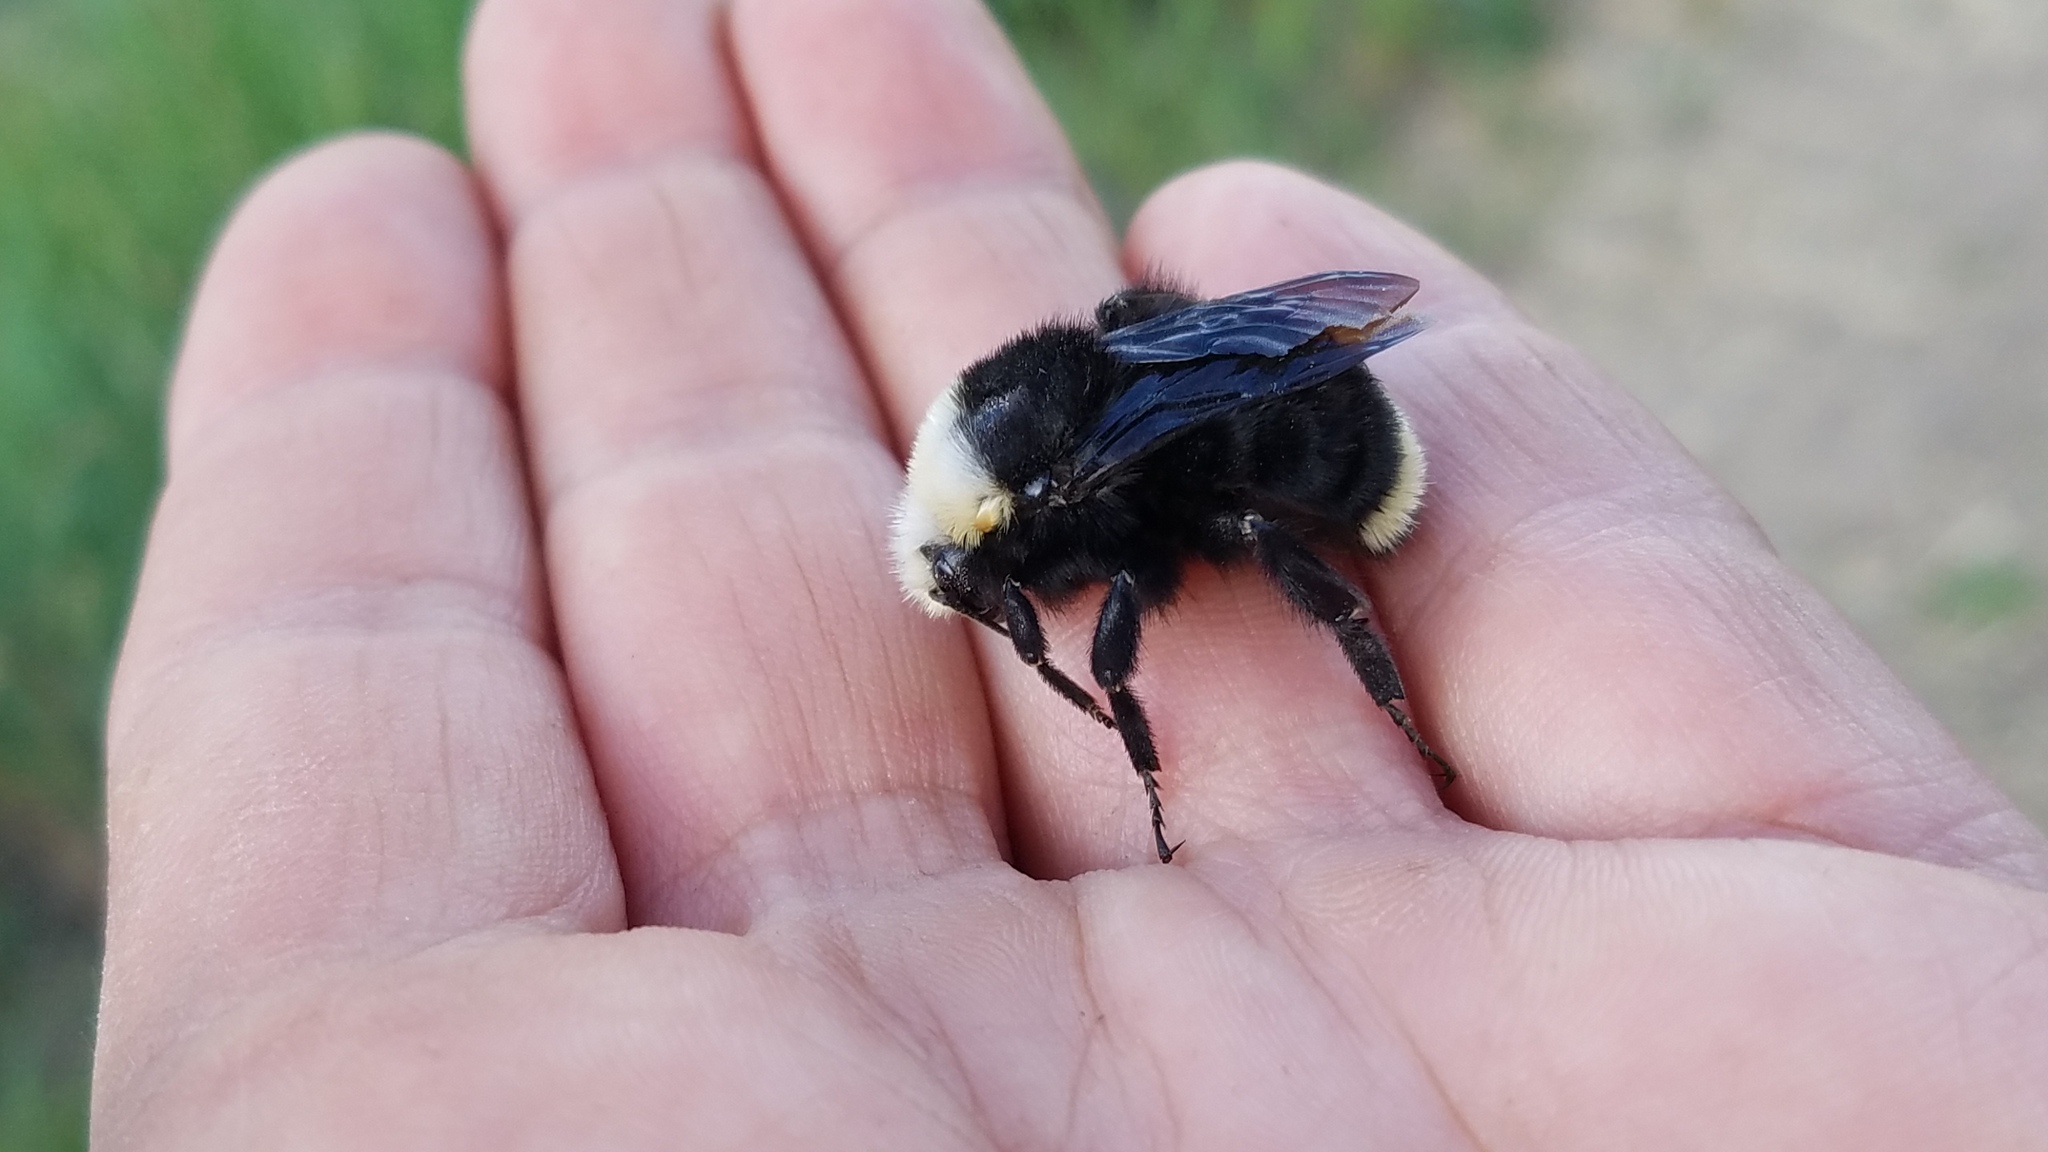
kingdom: Animalia
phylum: Arthropoda
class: Insecta
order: Hymenoptera
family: Apidae
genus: Bombus
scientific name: Bombus vosnesenskii
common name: Vosnesensky bumble bee
